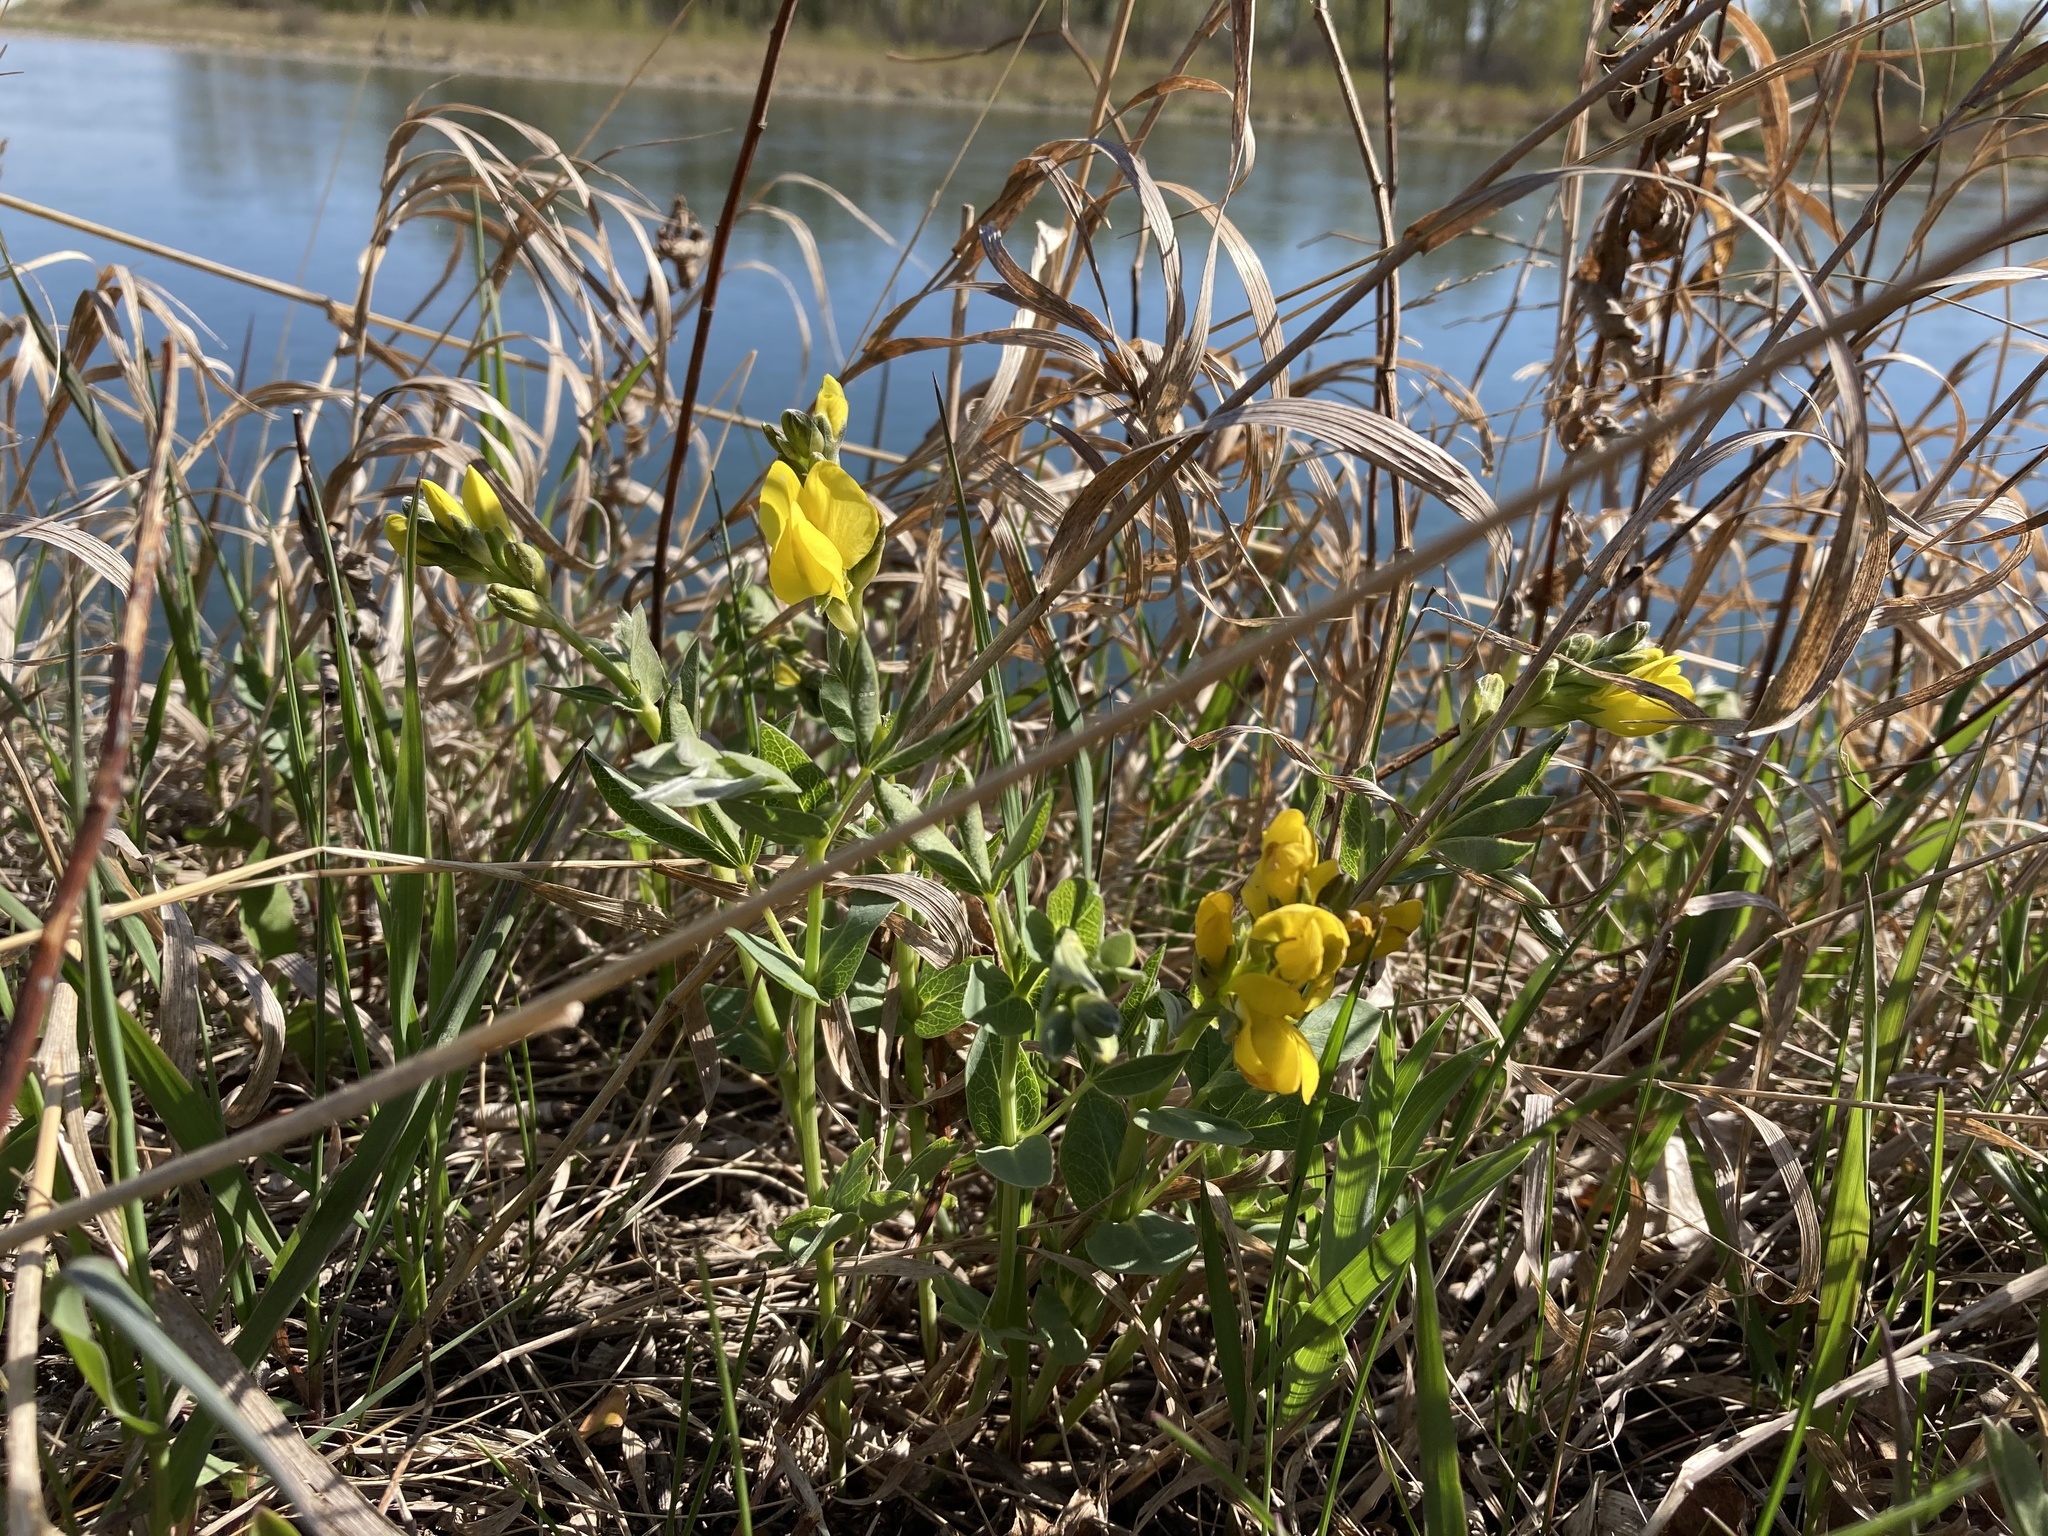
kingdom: Plantae
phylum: Tracheophyta
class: Magnoliopsida
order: Fabales
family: Fabaceae
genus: Thermopsis
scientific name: Thermopsis rhombifolia
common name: Circle-pod-pea
